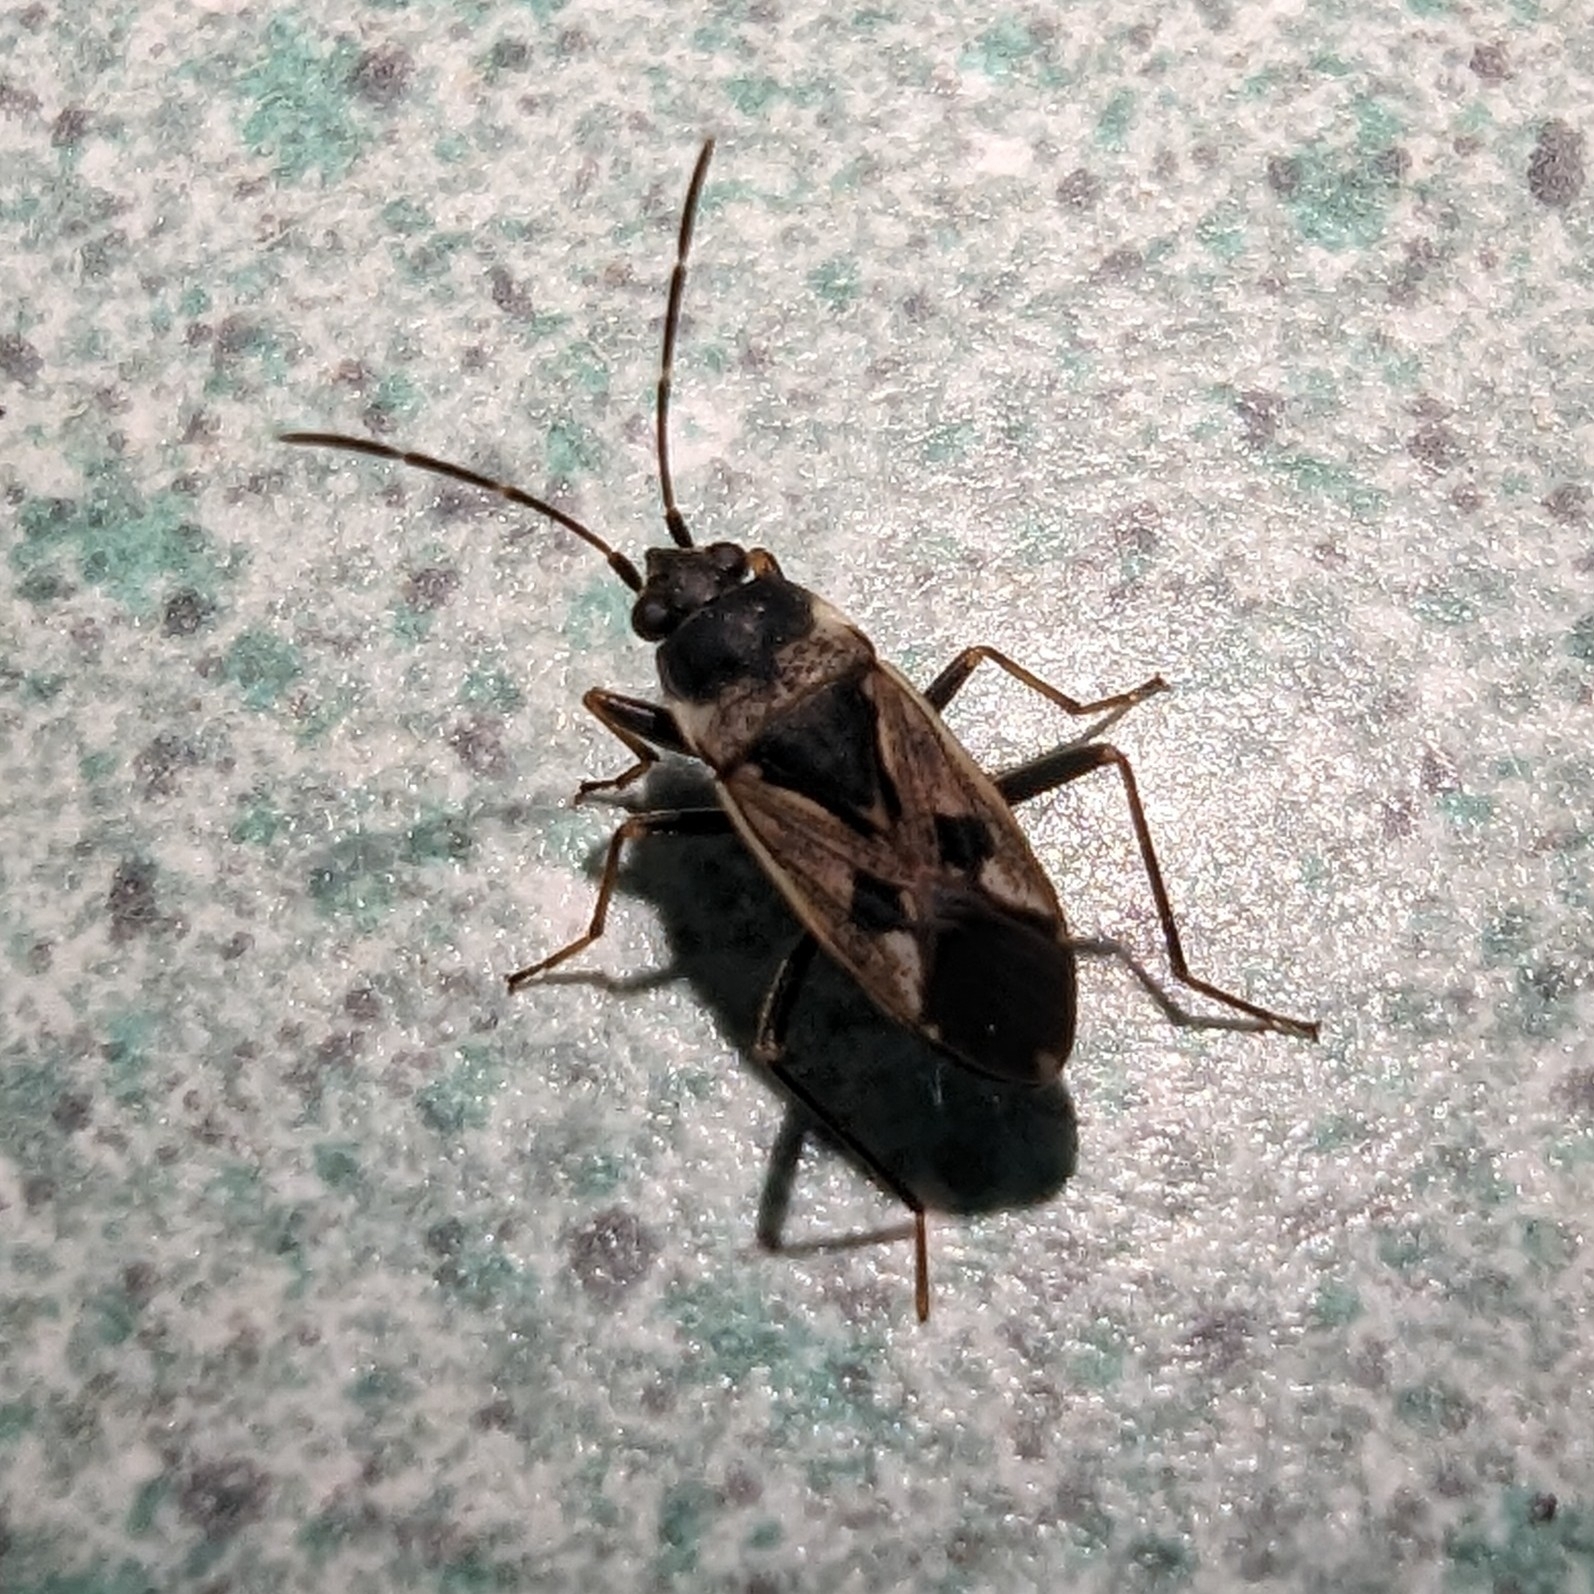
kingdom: Animalia
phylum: Arthropoda
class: Insecta
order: Hemiptera
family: Rhyparochromidae
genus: Rhyparochromus
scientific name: Rhyparochromus vulgaris
